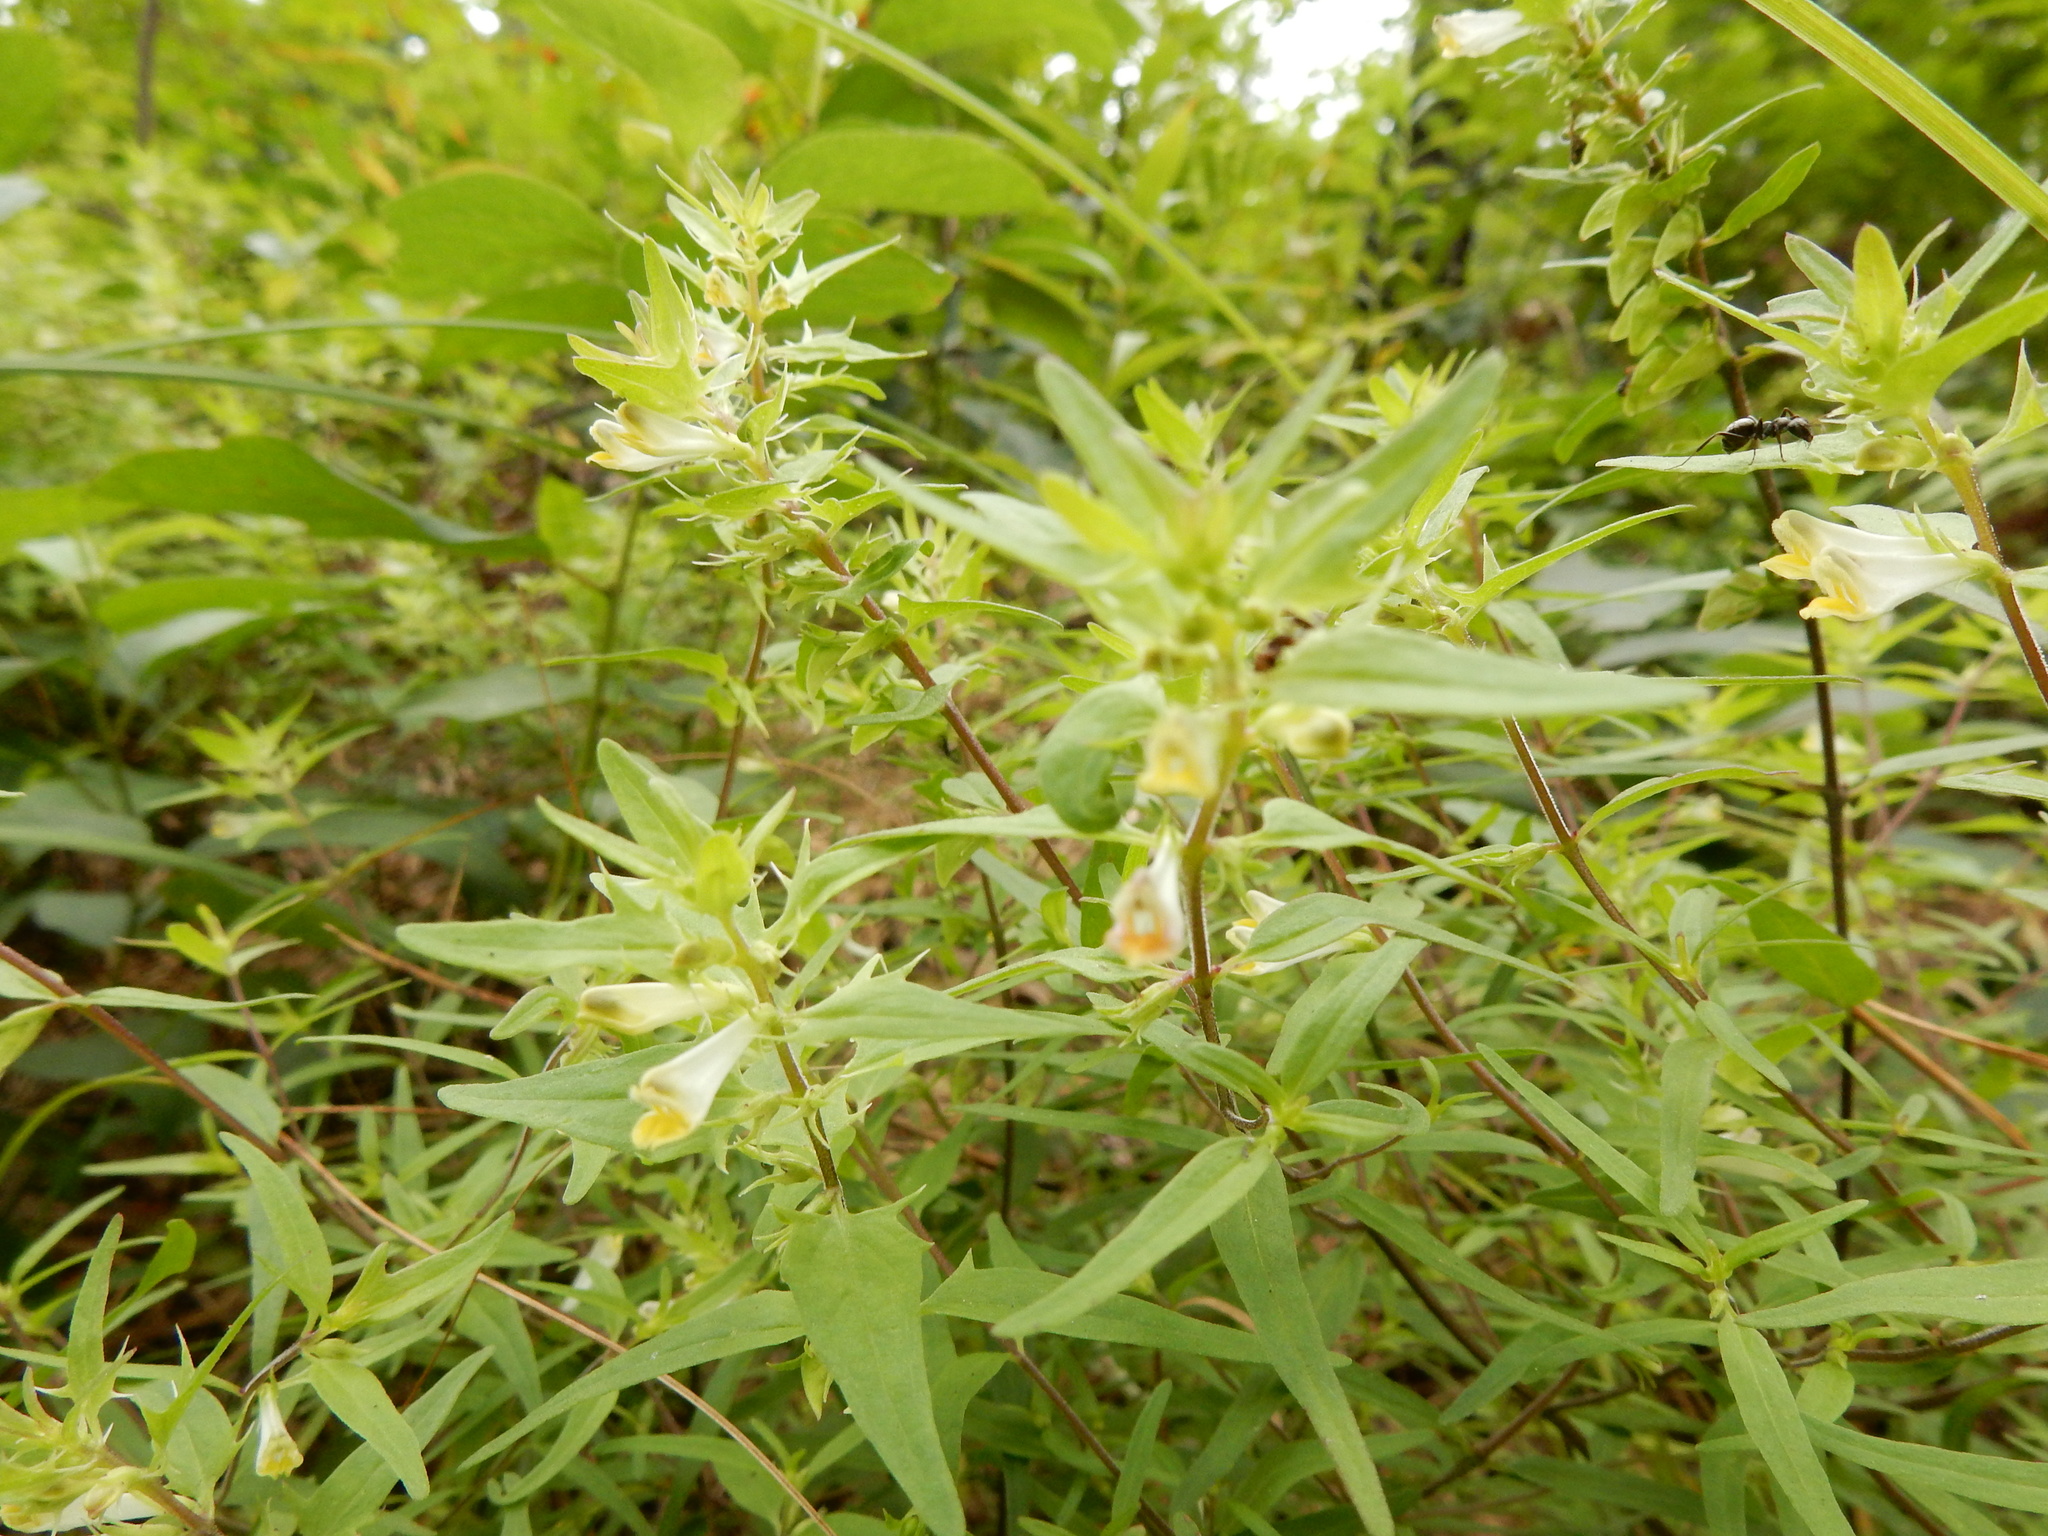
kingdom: Plantae
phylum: Tracheophyta
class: Magnoliopsida
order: Lamiales
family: Orobanchaceae
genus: Melampyrum
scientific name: Melampyrum lineare
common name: American cow-wheat
